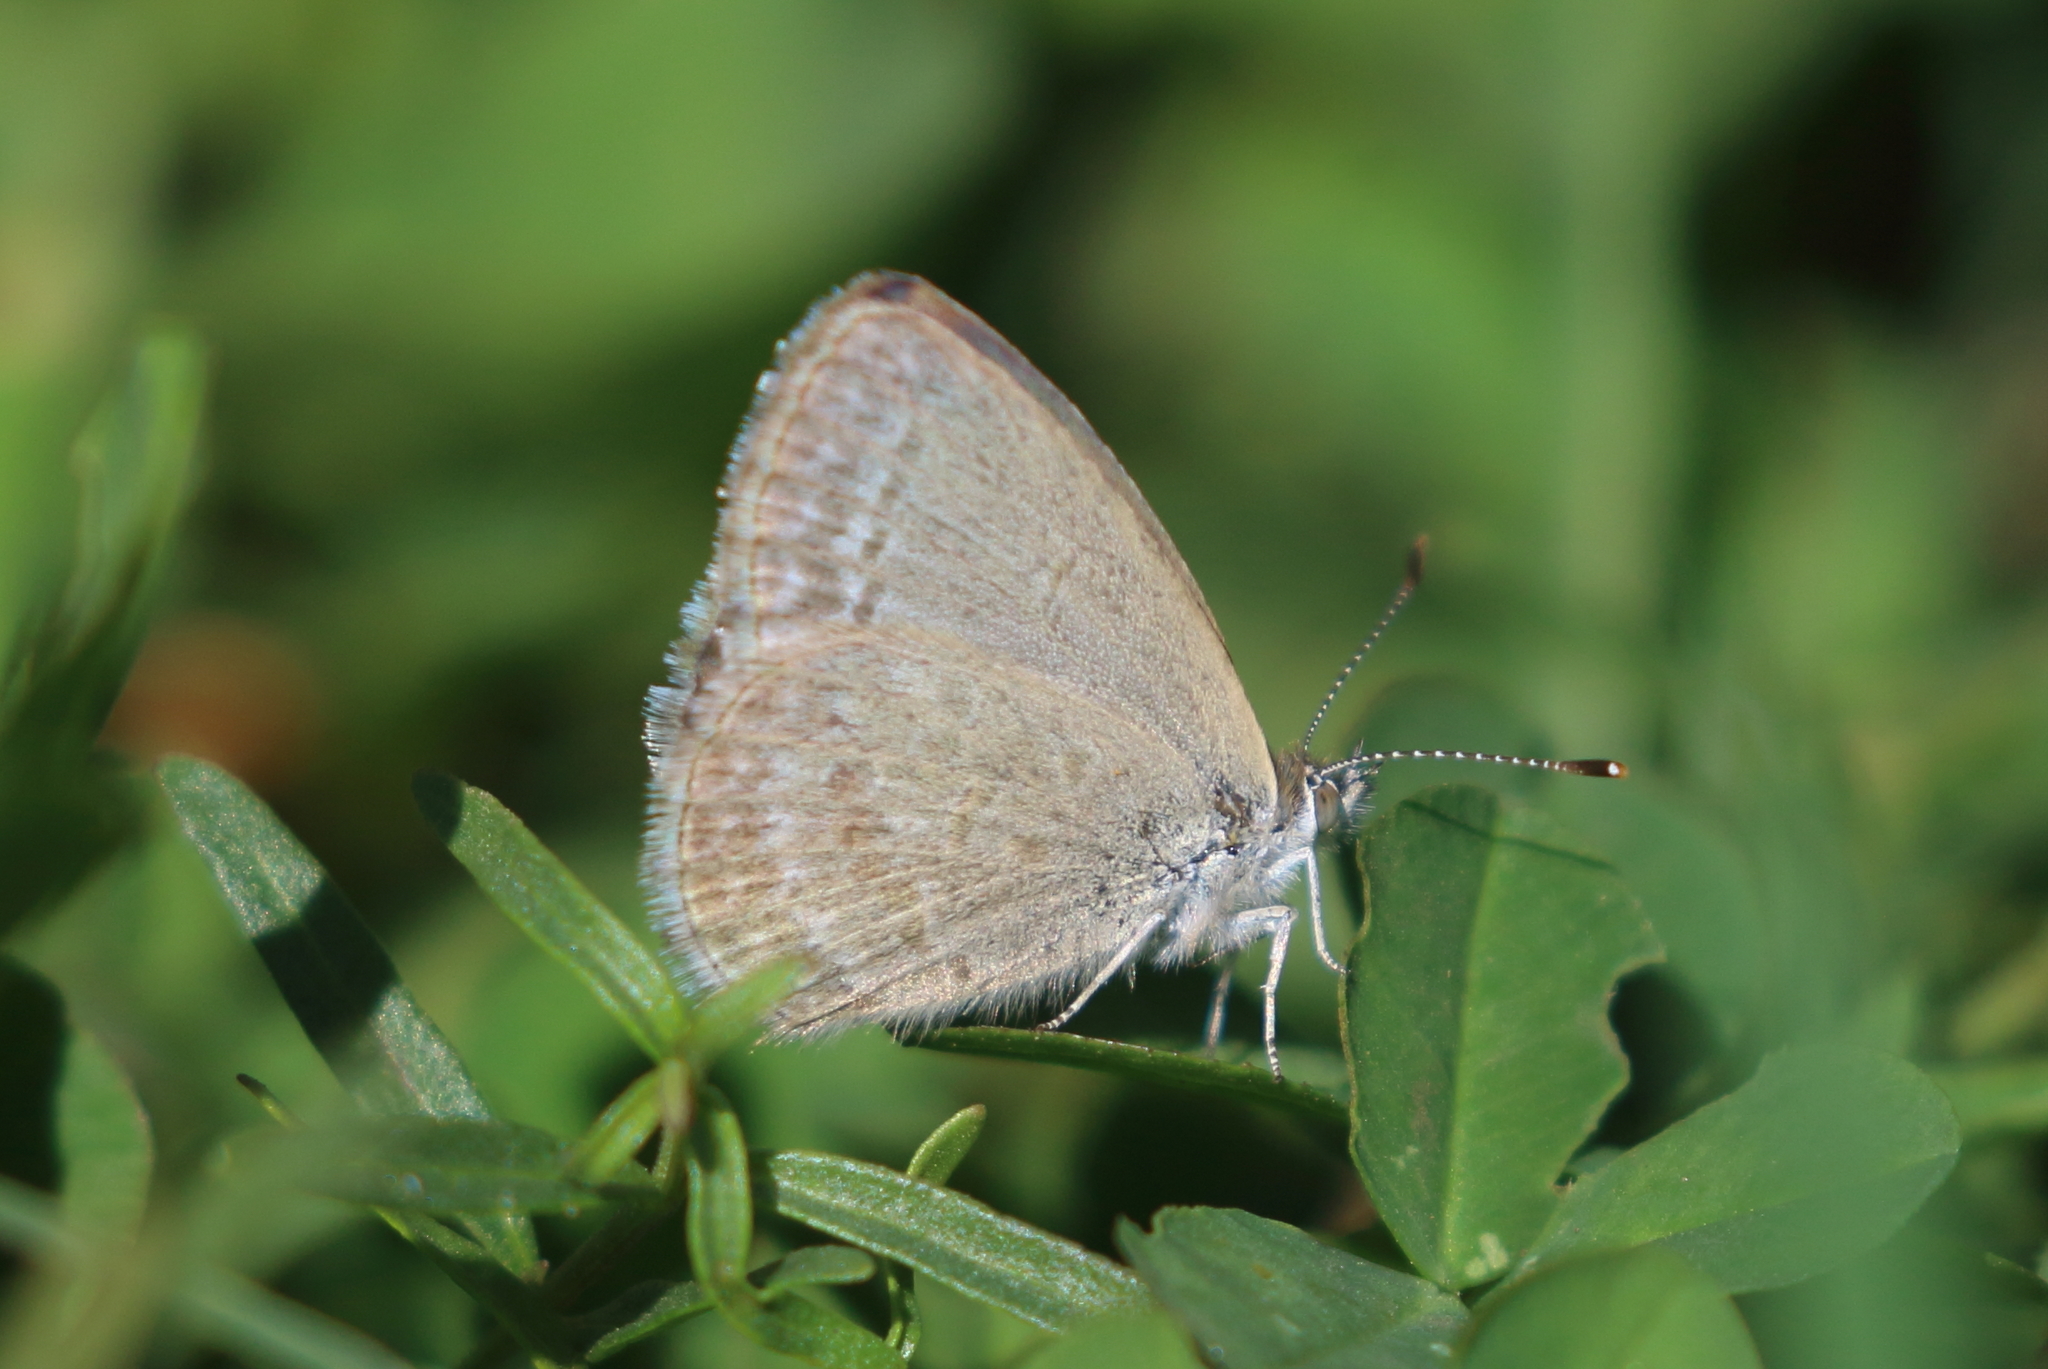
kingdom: Animalia
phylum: Arthropoda
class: Insecta
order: Lepidoptera
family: Lycaenidae
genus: Zizina
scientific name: Zizina labradus
